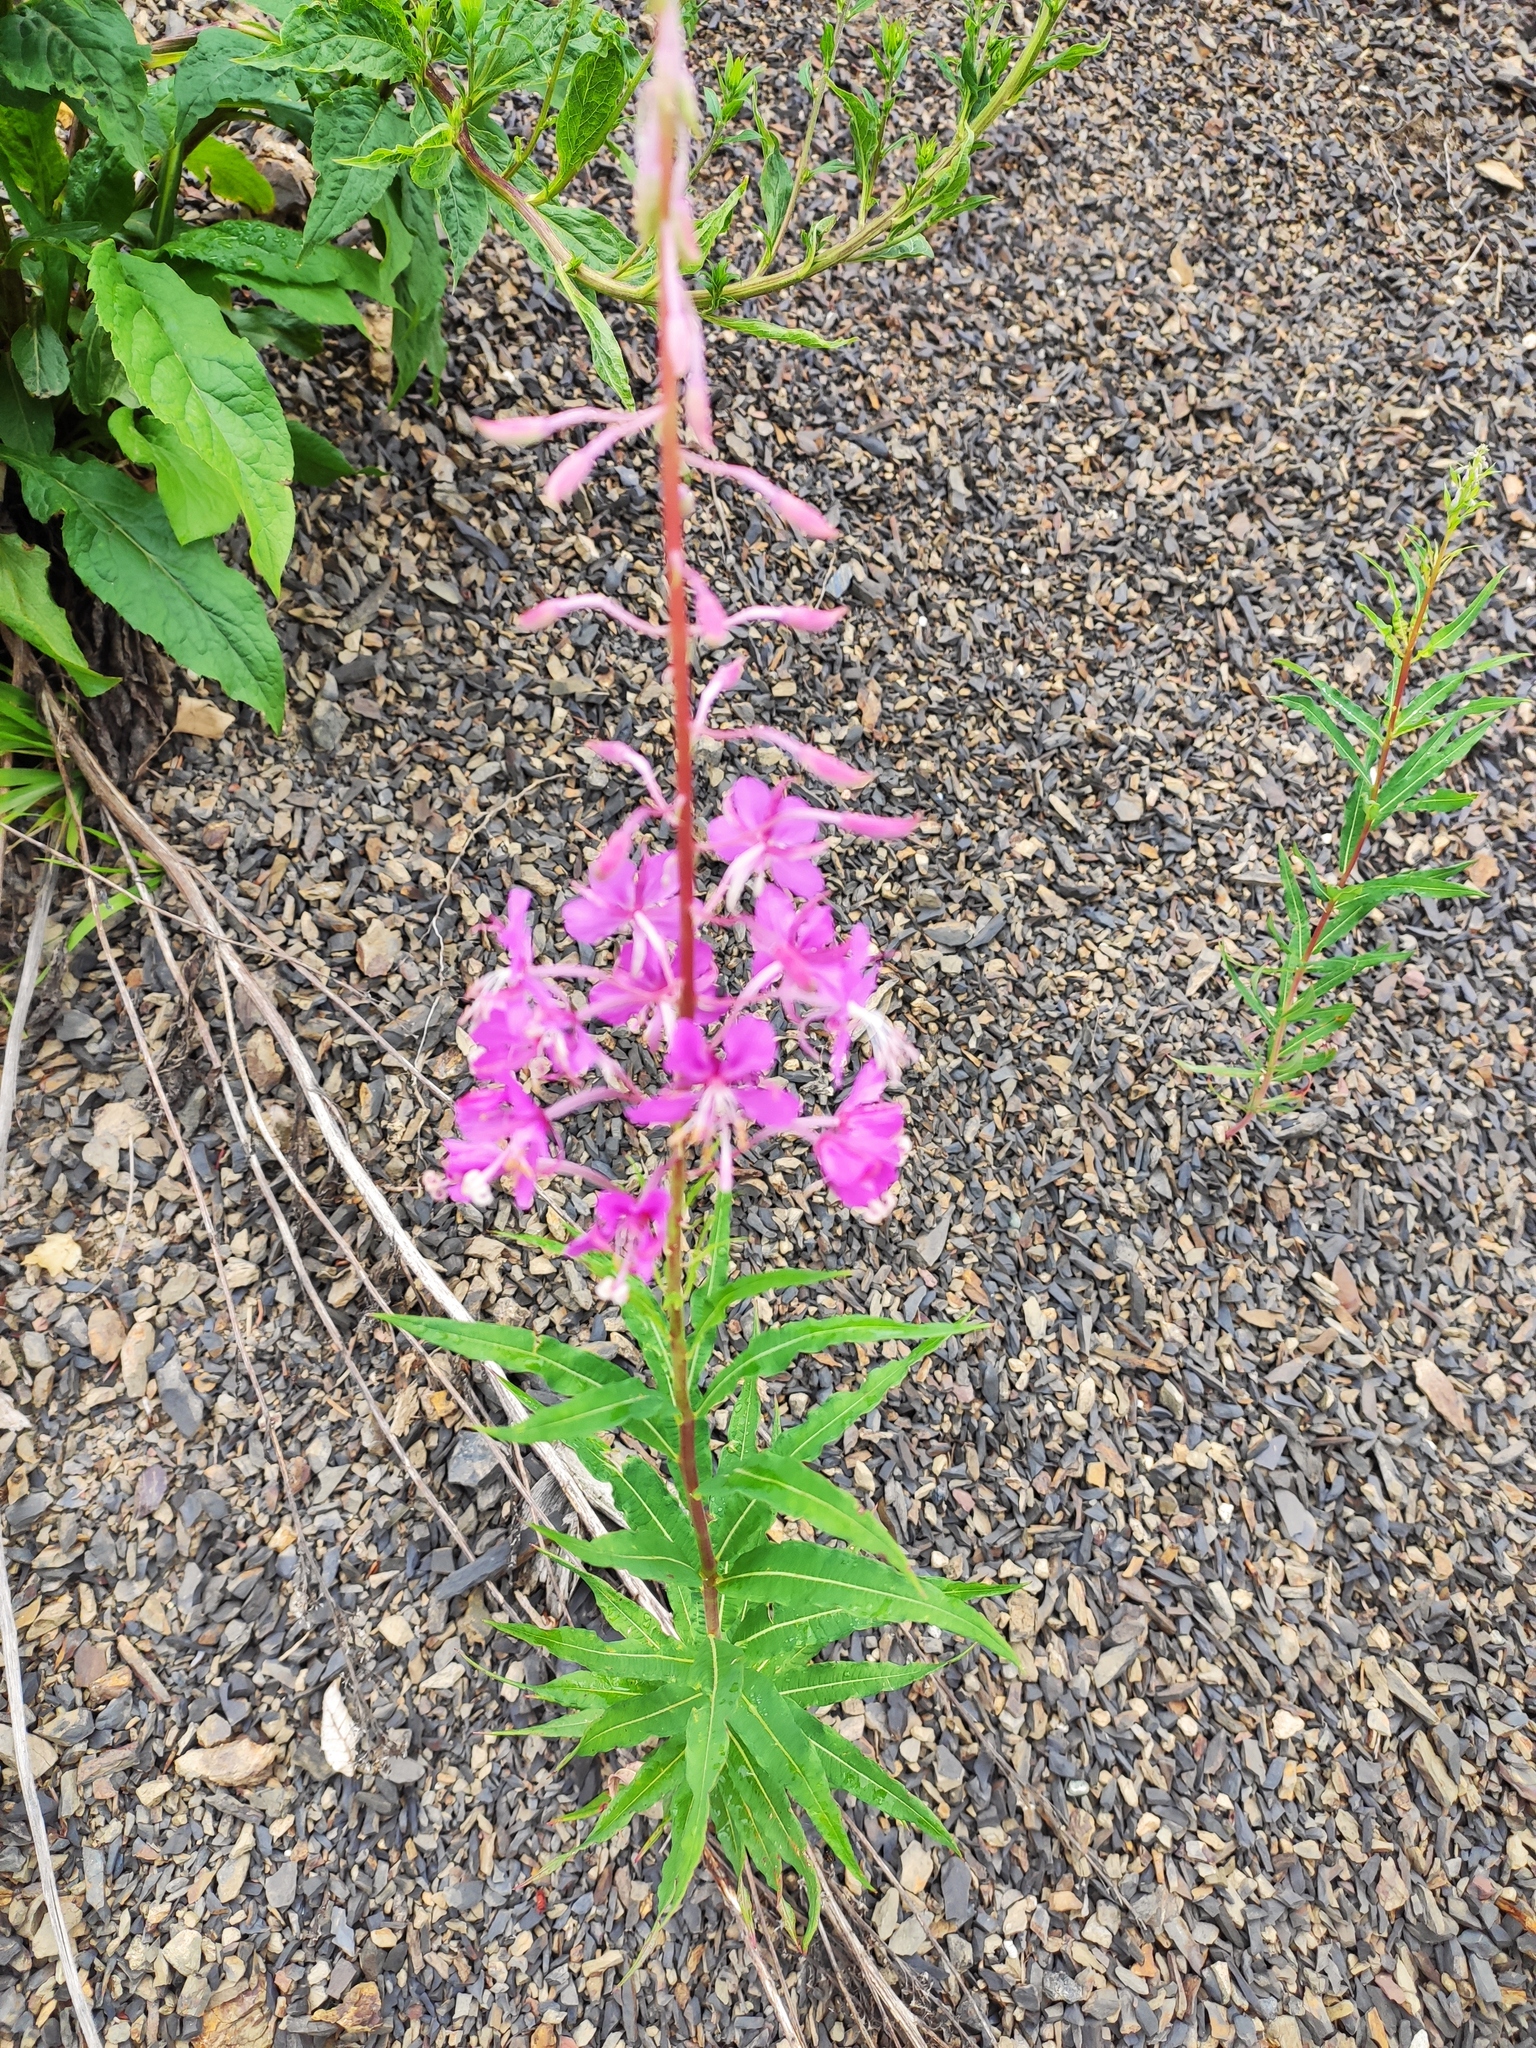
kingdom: Plantae
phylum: Tracheophyta
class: Magnoliopsida
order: Myrtales
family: Onagraceae
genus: Chamaenerion
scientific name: Chamaenerion angustifolium
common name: Fireweed
